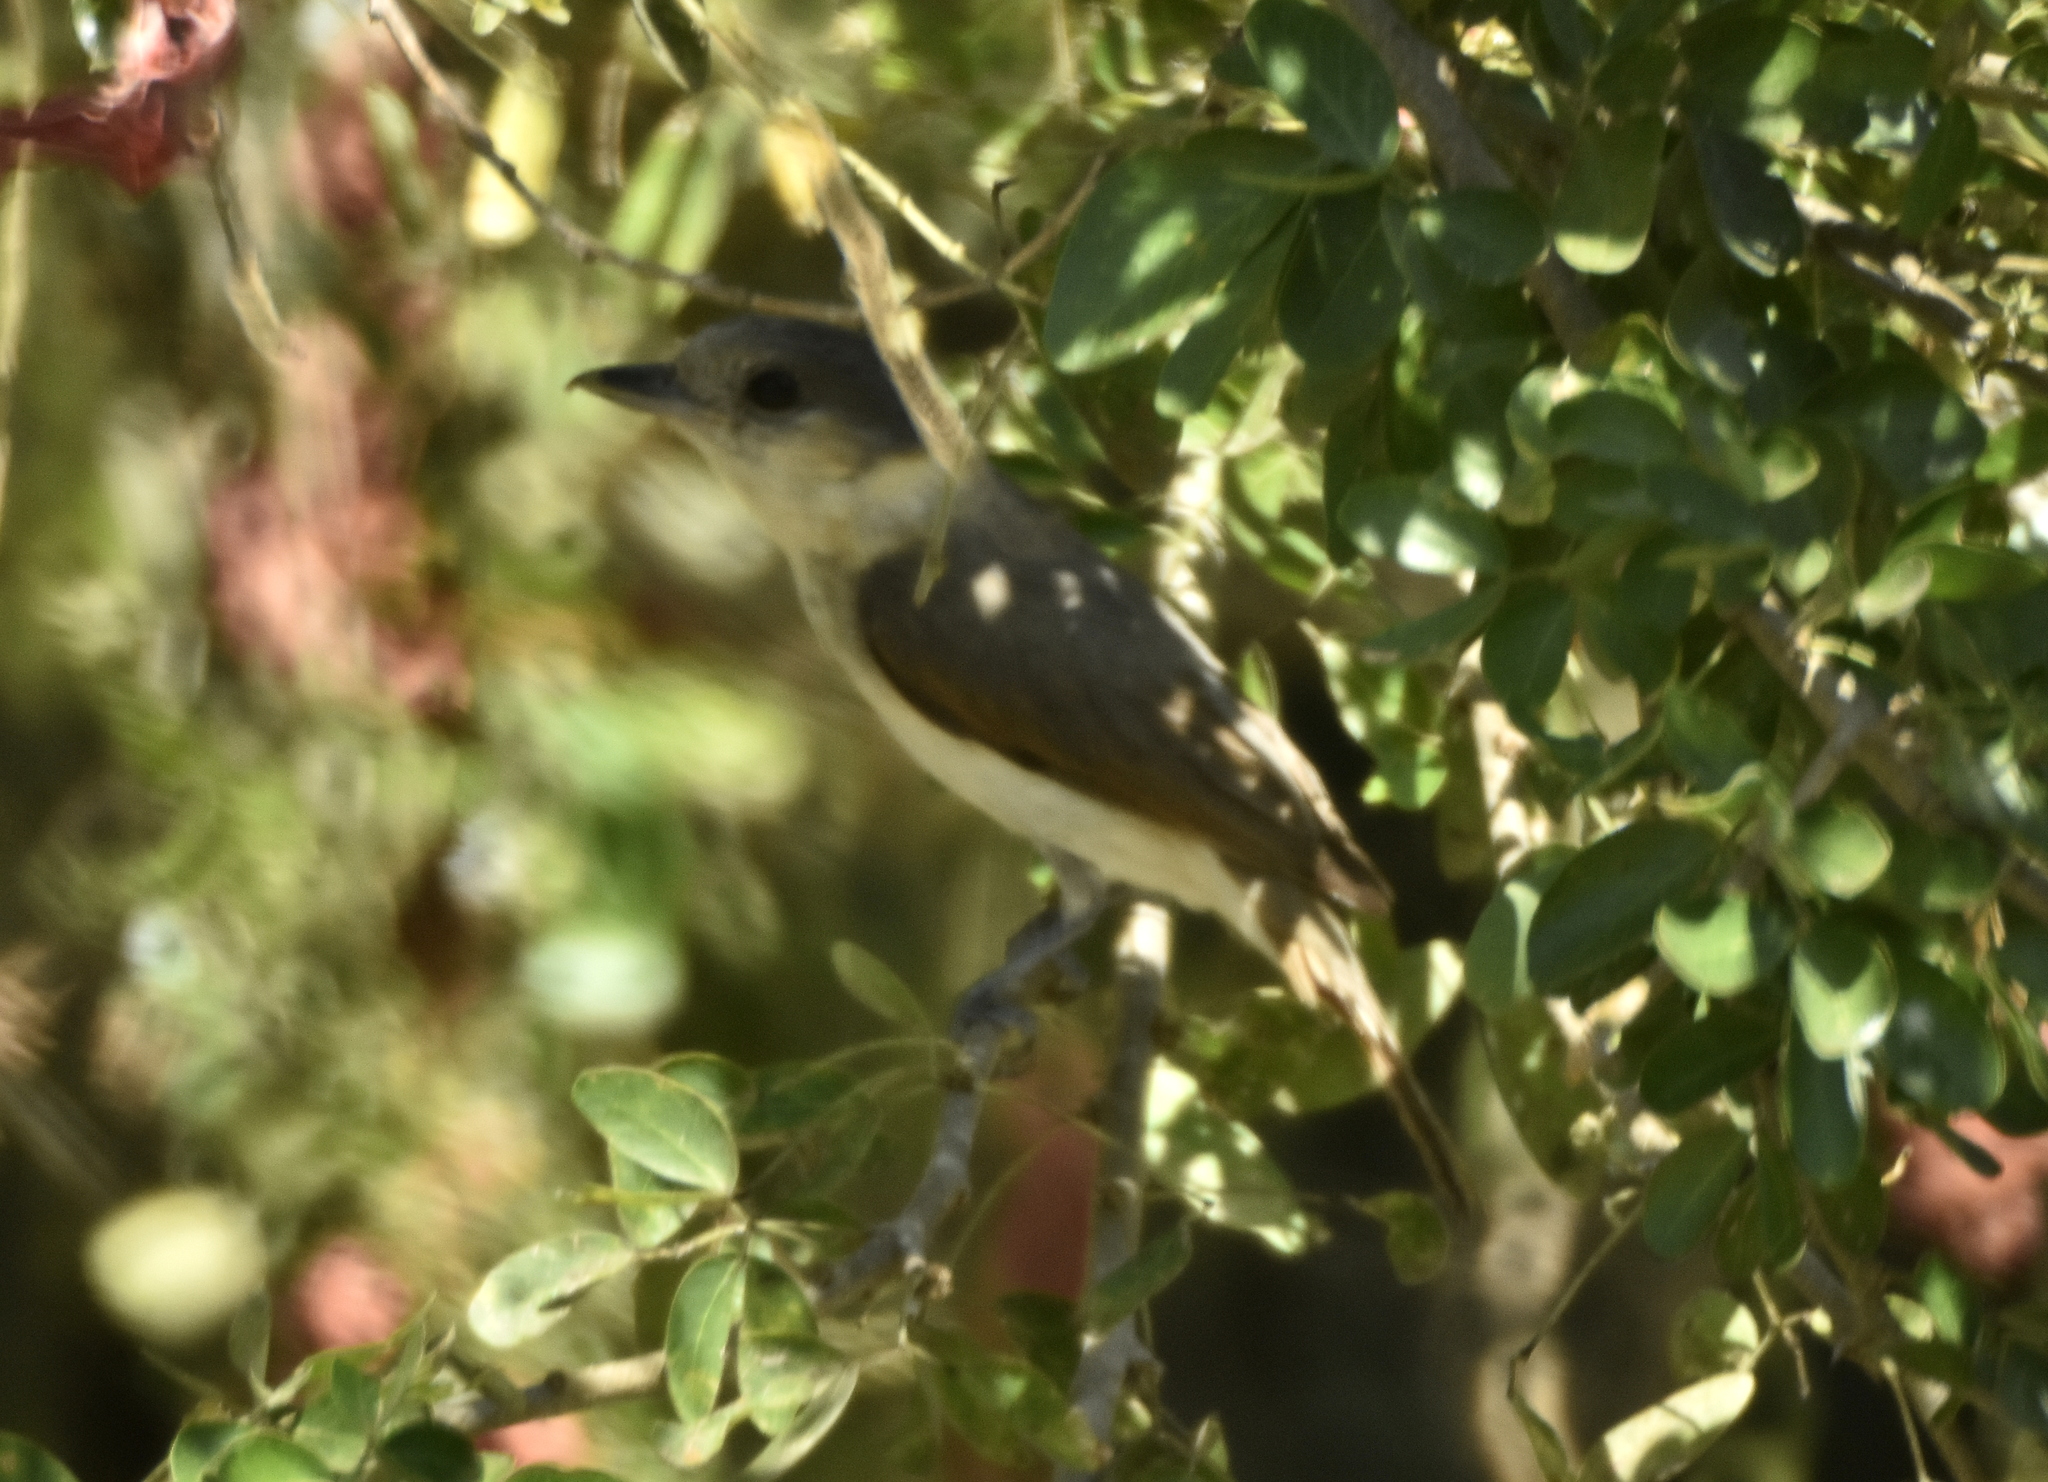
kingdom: Animalia
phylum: Chordata
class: Aves
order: Passeriformes
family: Cotingidae
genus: Pachyramphus
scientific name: Pachyramphus aglaiae
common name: Rose-throated becard
